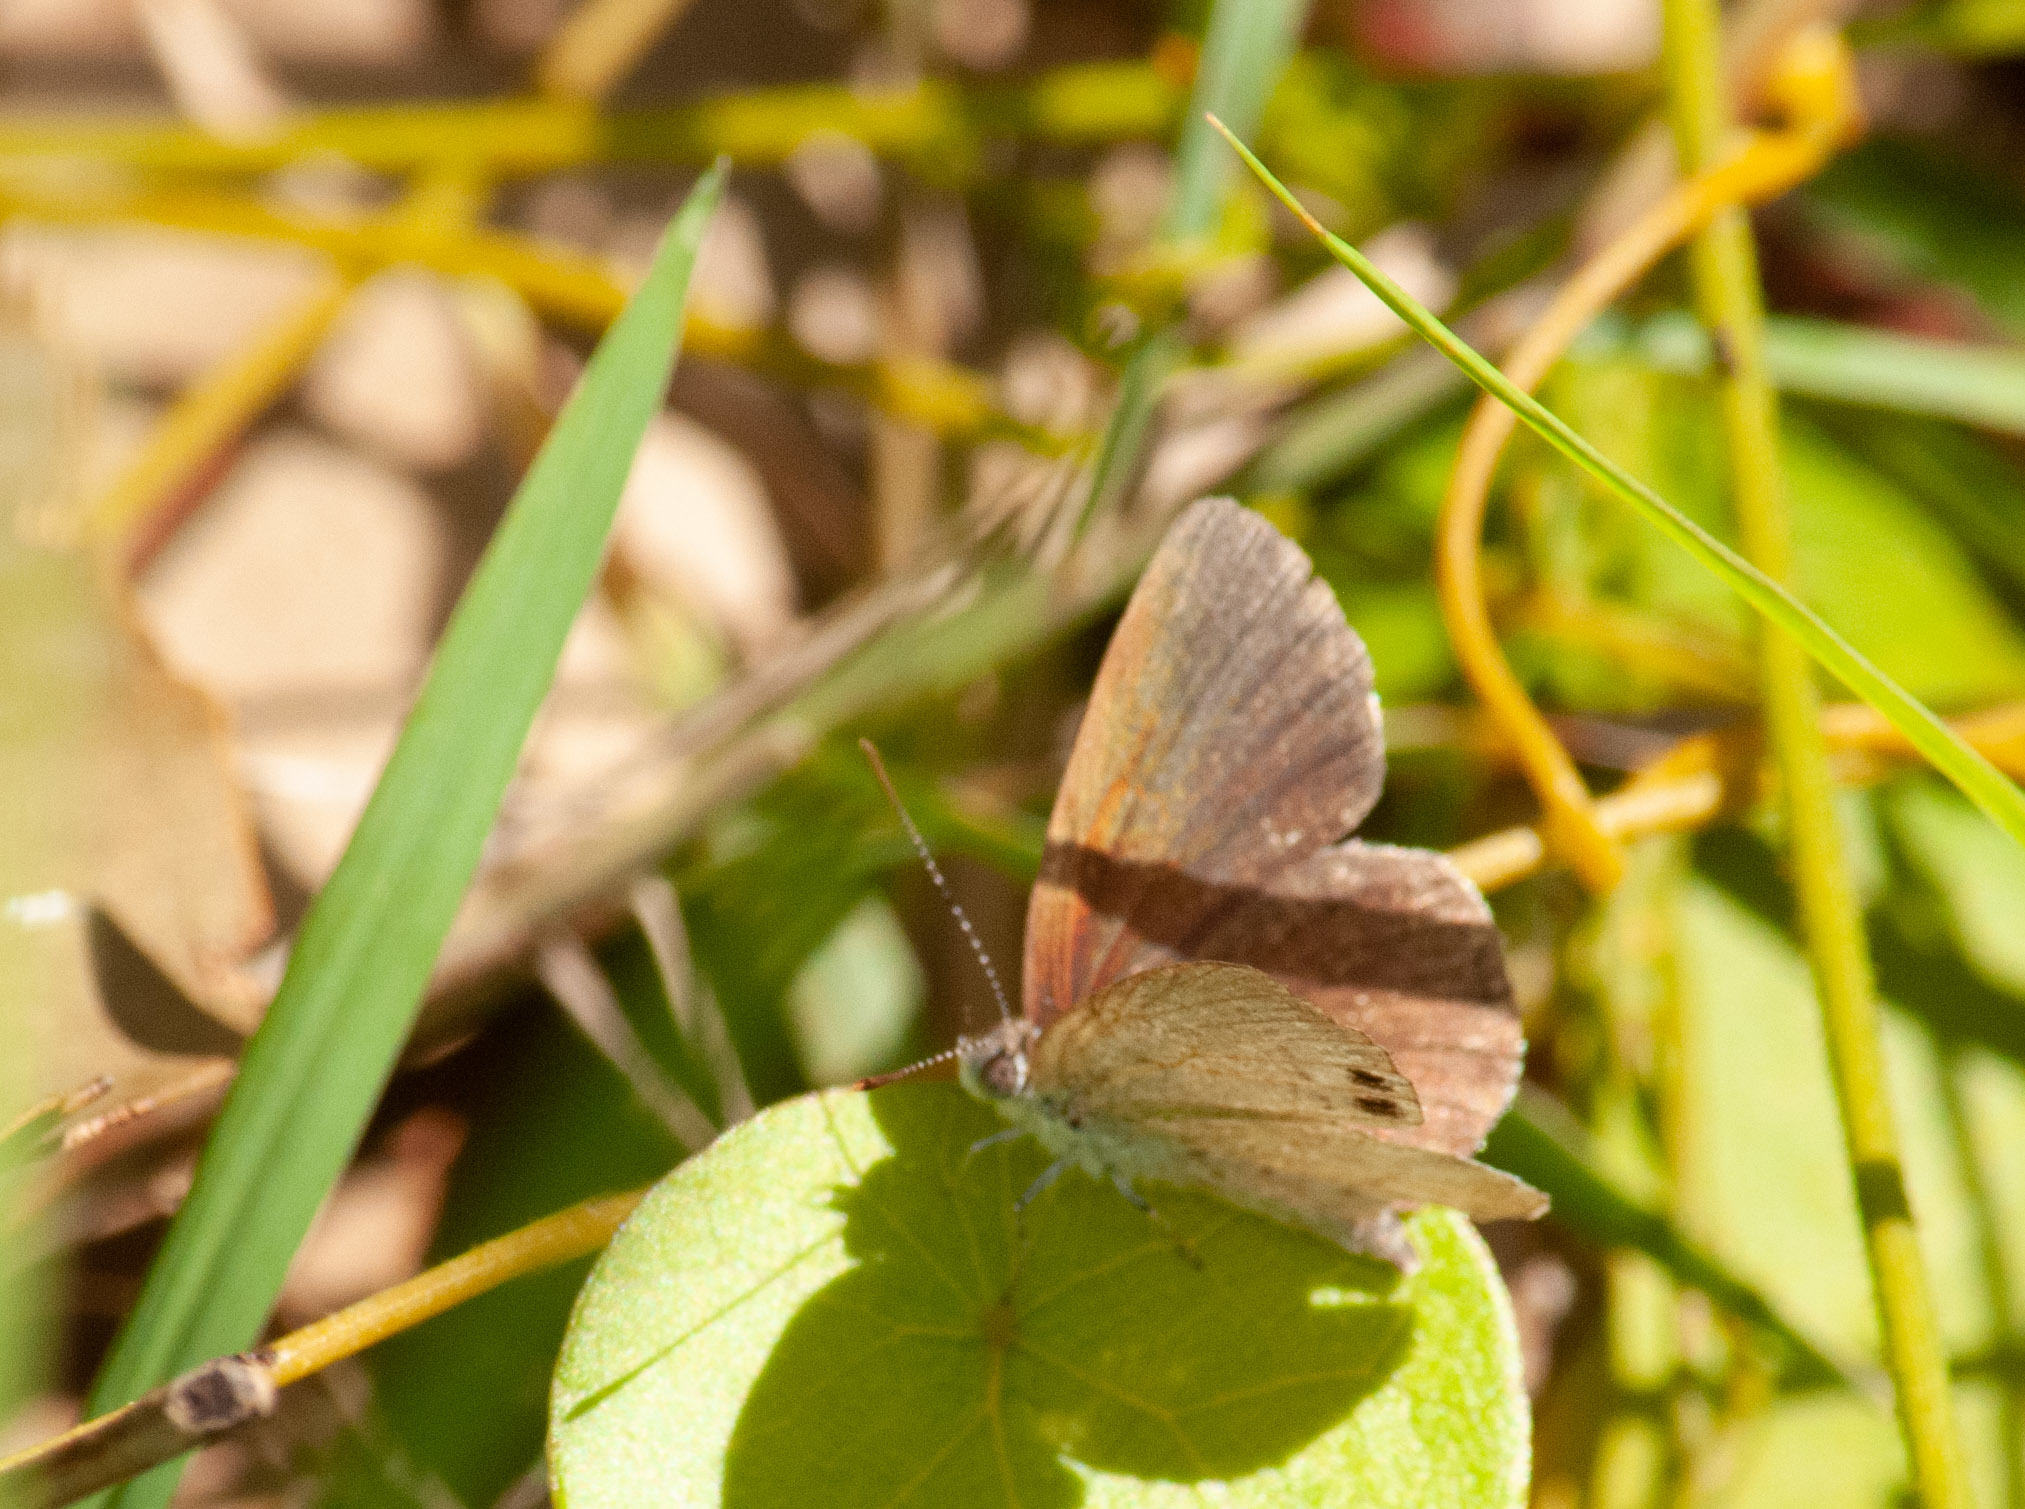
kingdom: Animalia
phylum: Arthropoda
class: Insecta
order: Lepidoptera
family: Lycaenidae
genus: Candalides
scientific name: Candalides
